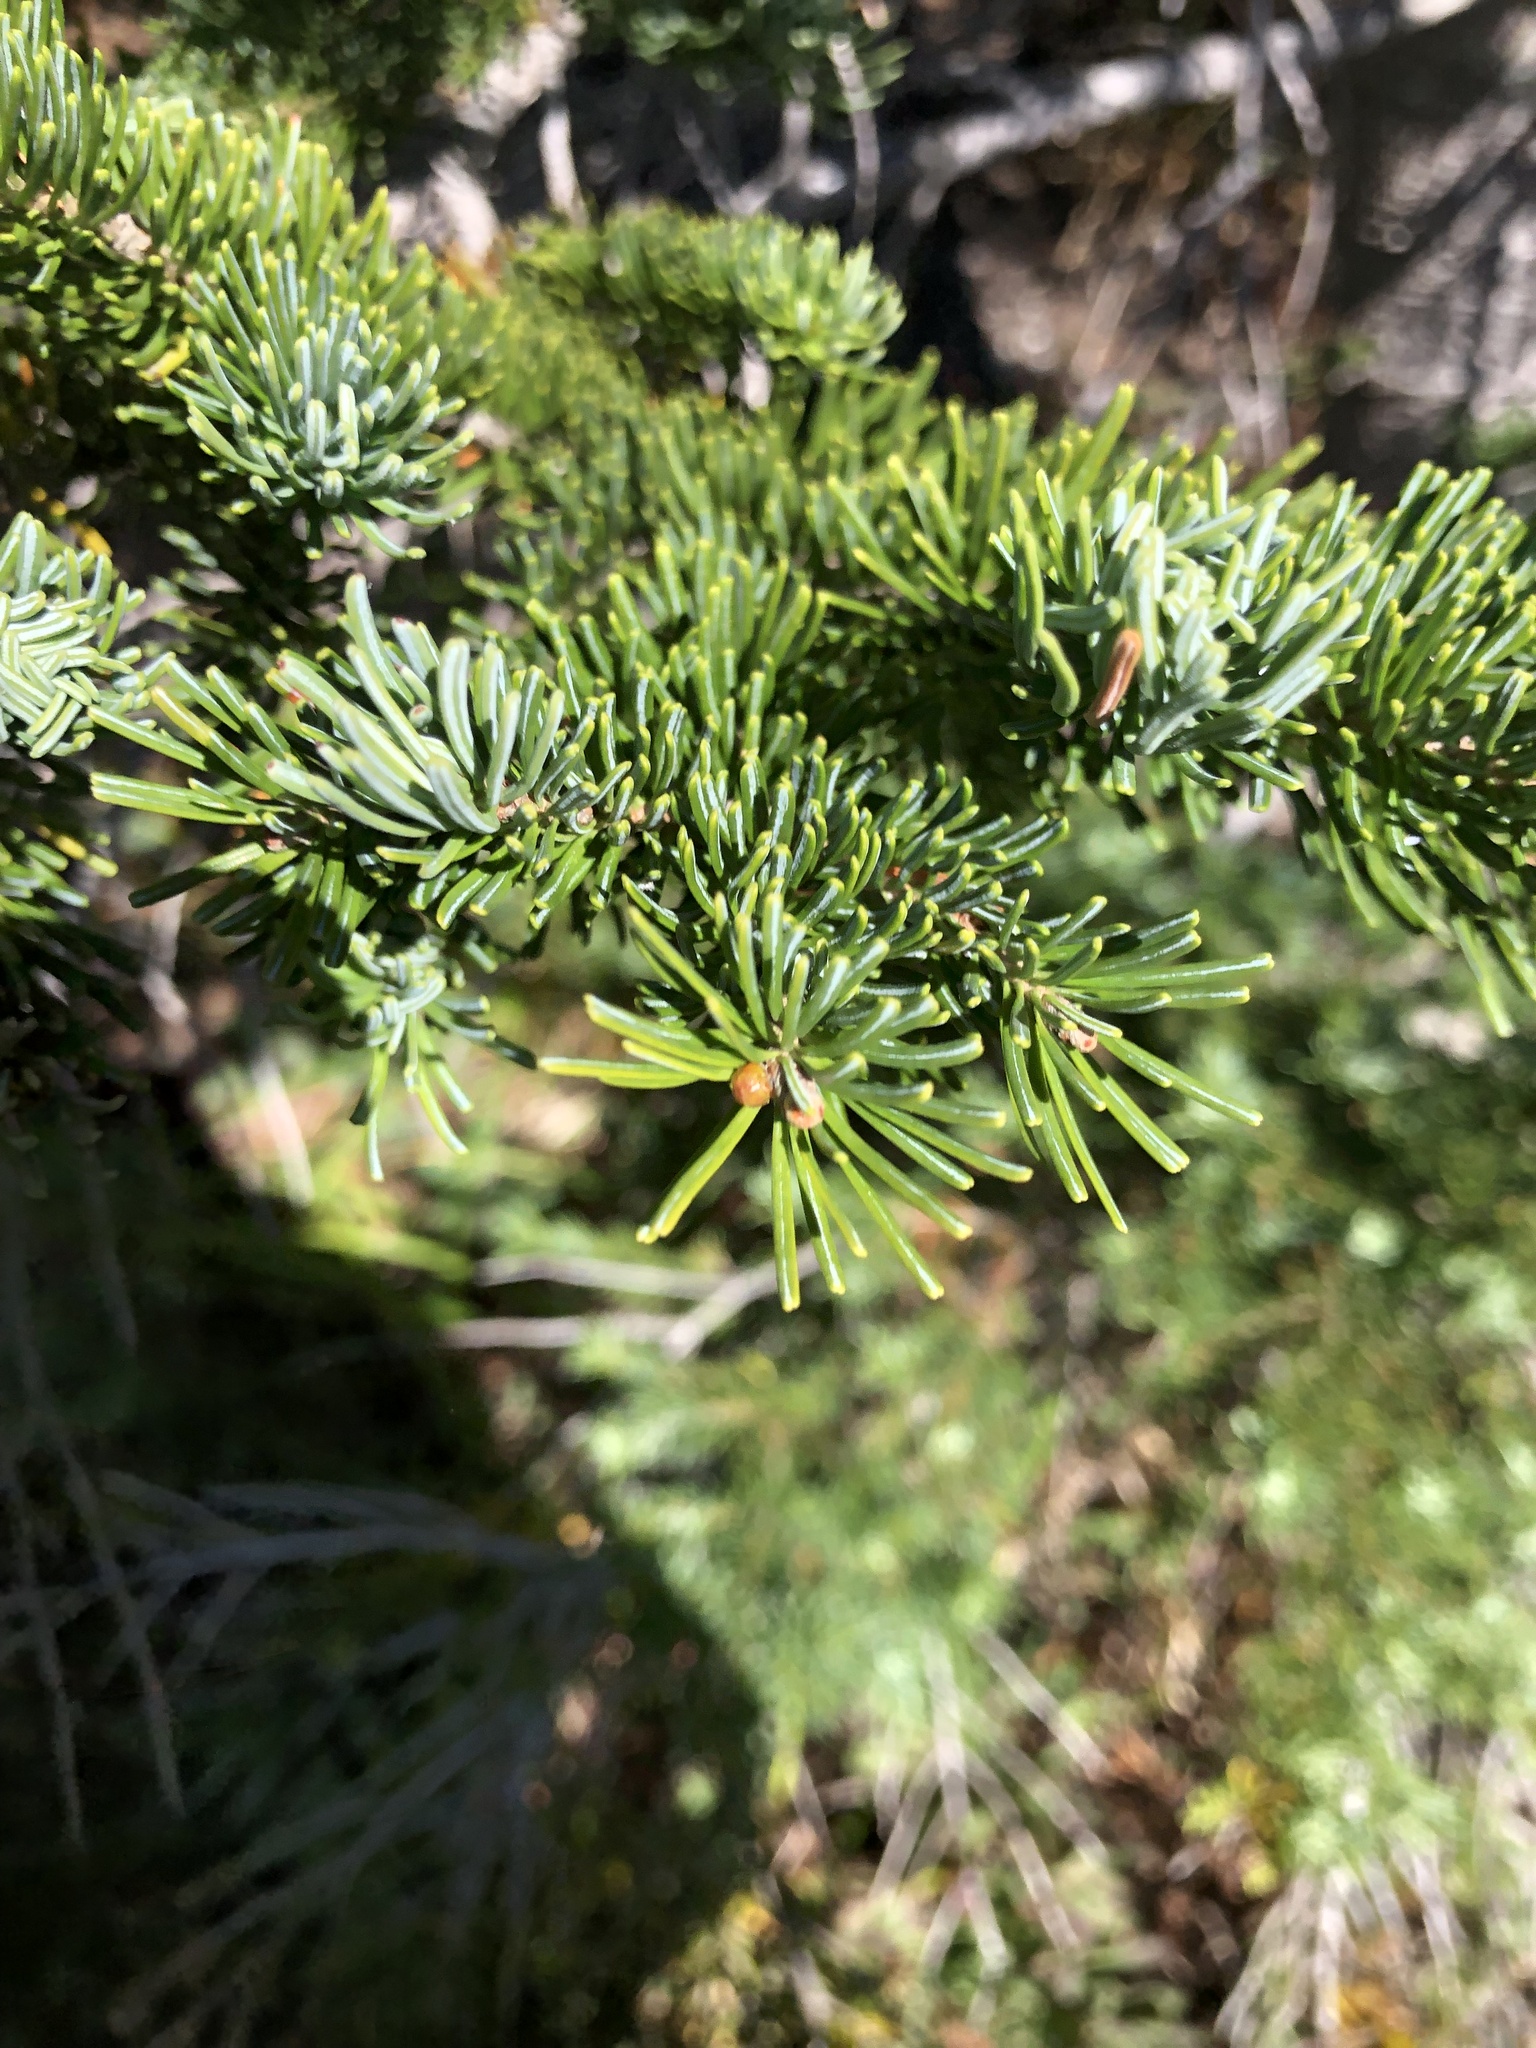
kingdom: Plantae
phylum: Tracheophyta
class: Pinopsida
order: Pinales
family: Pinaceae
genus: Abies
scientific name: Abies lasiocarpa
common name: Subalpine fir
